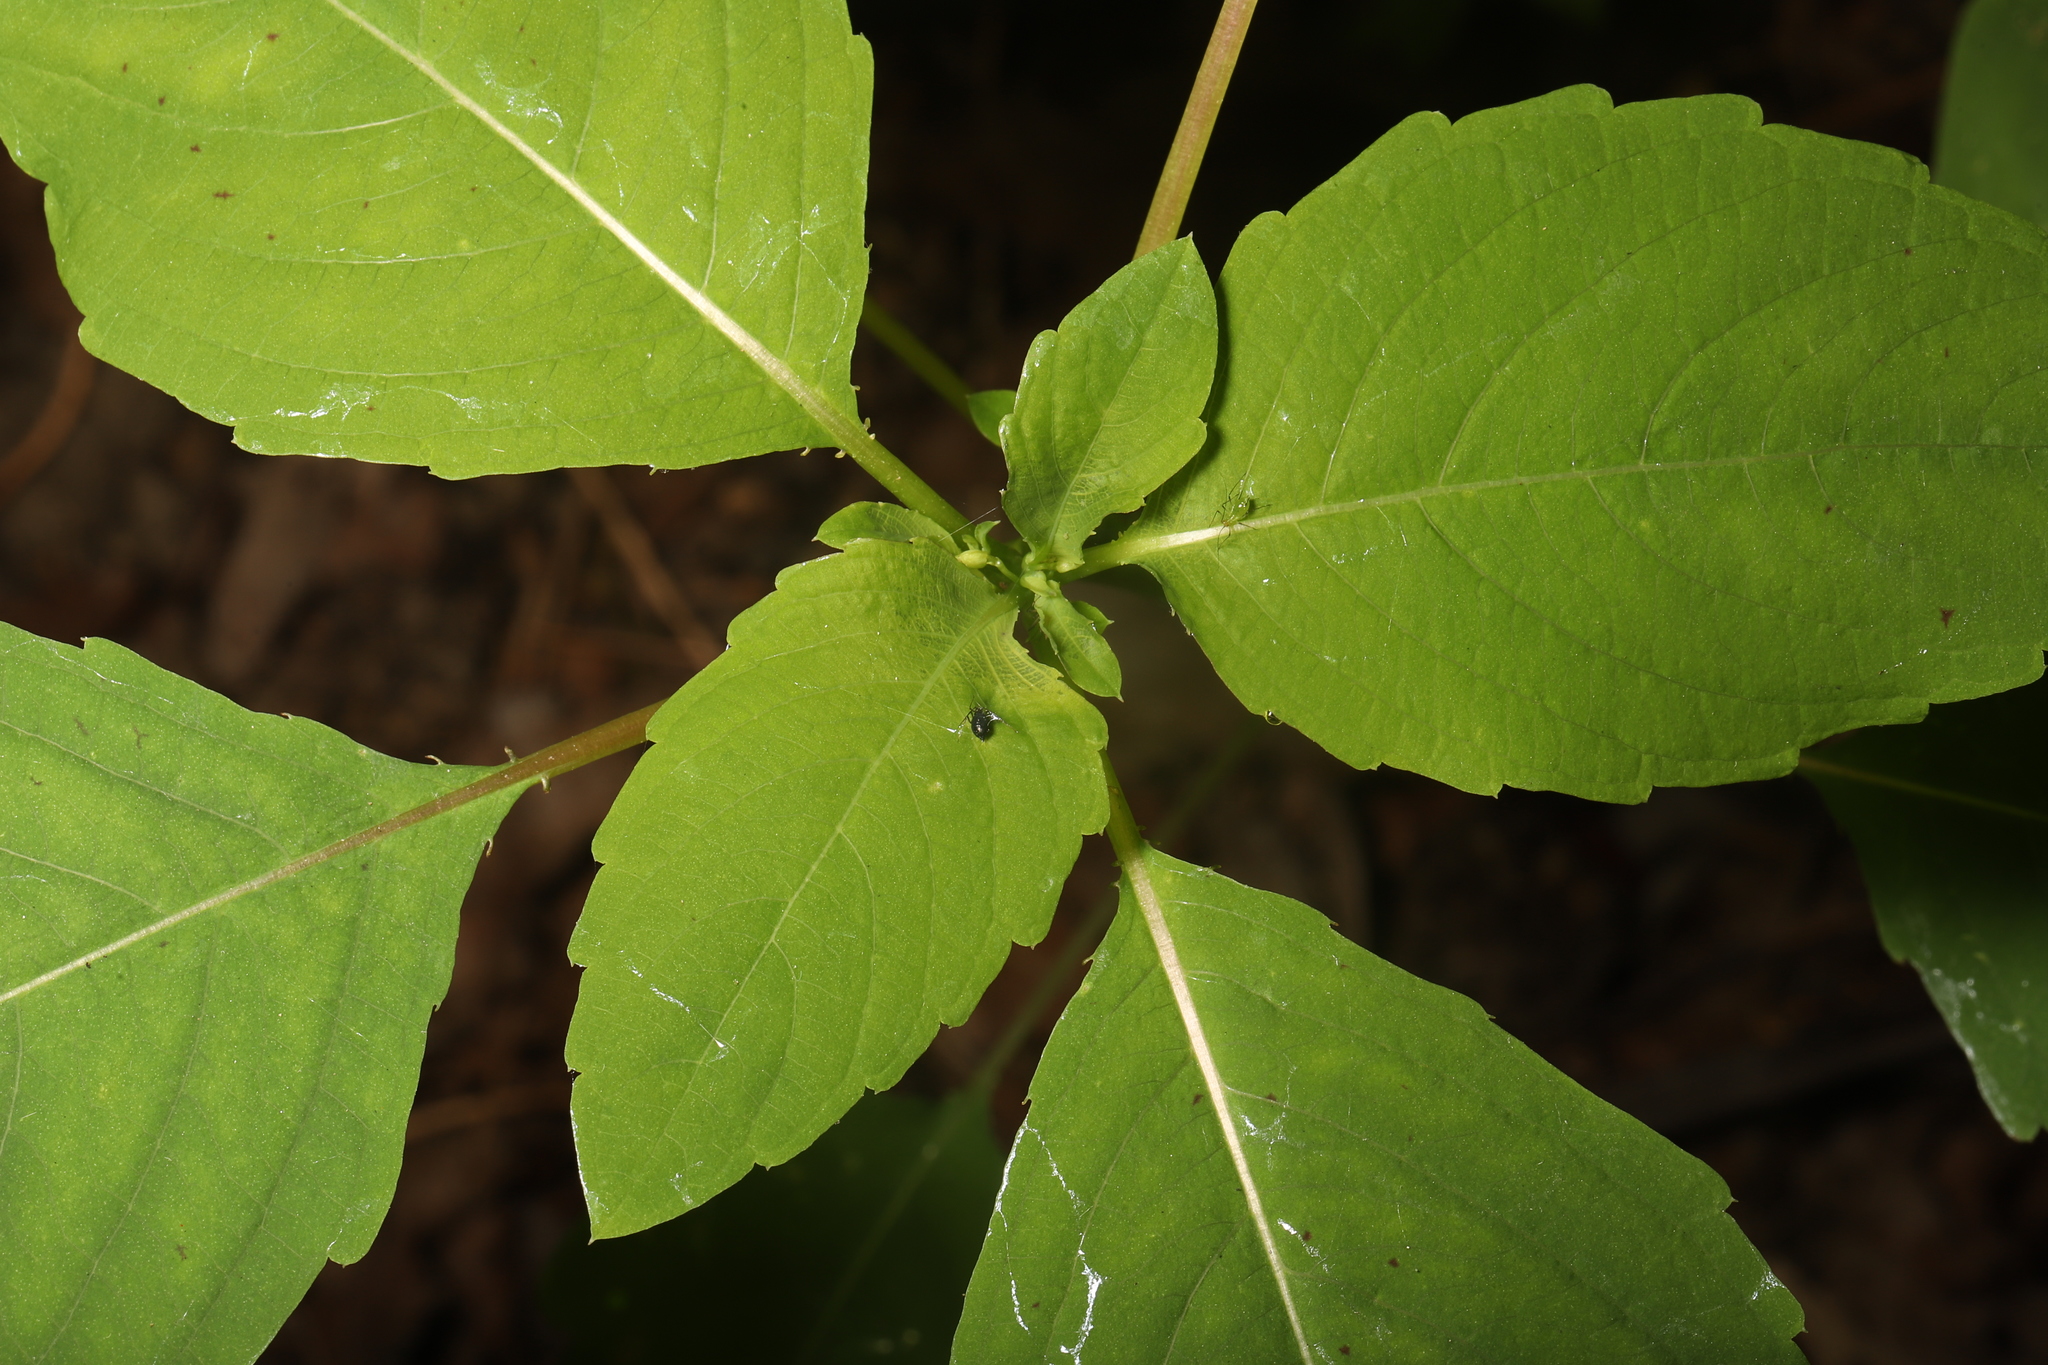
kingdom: Plantae
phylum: Tracheophyta
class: Magnoliopsida
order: Ericales
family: Balsaminaceae
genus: Impatiens
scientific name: Impatiens capensis
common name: Orange balsam
